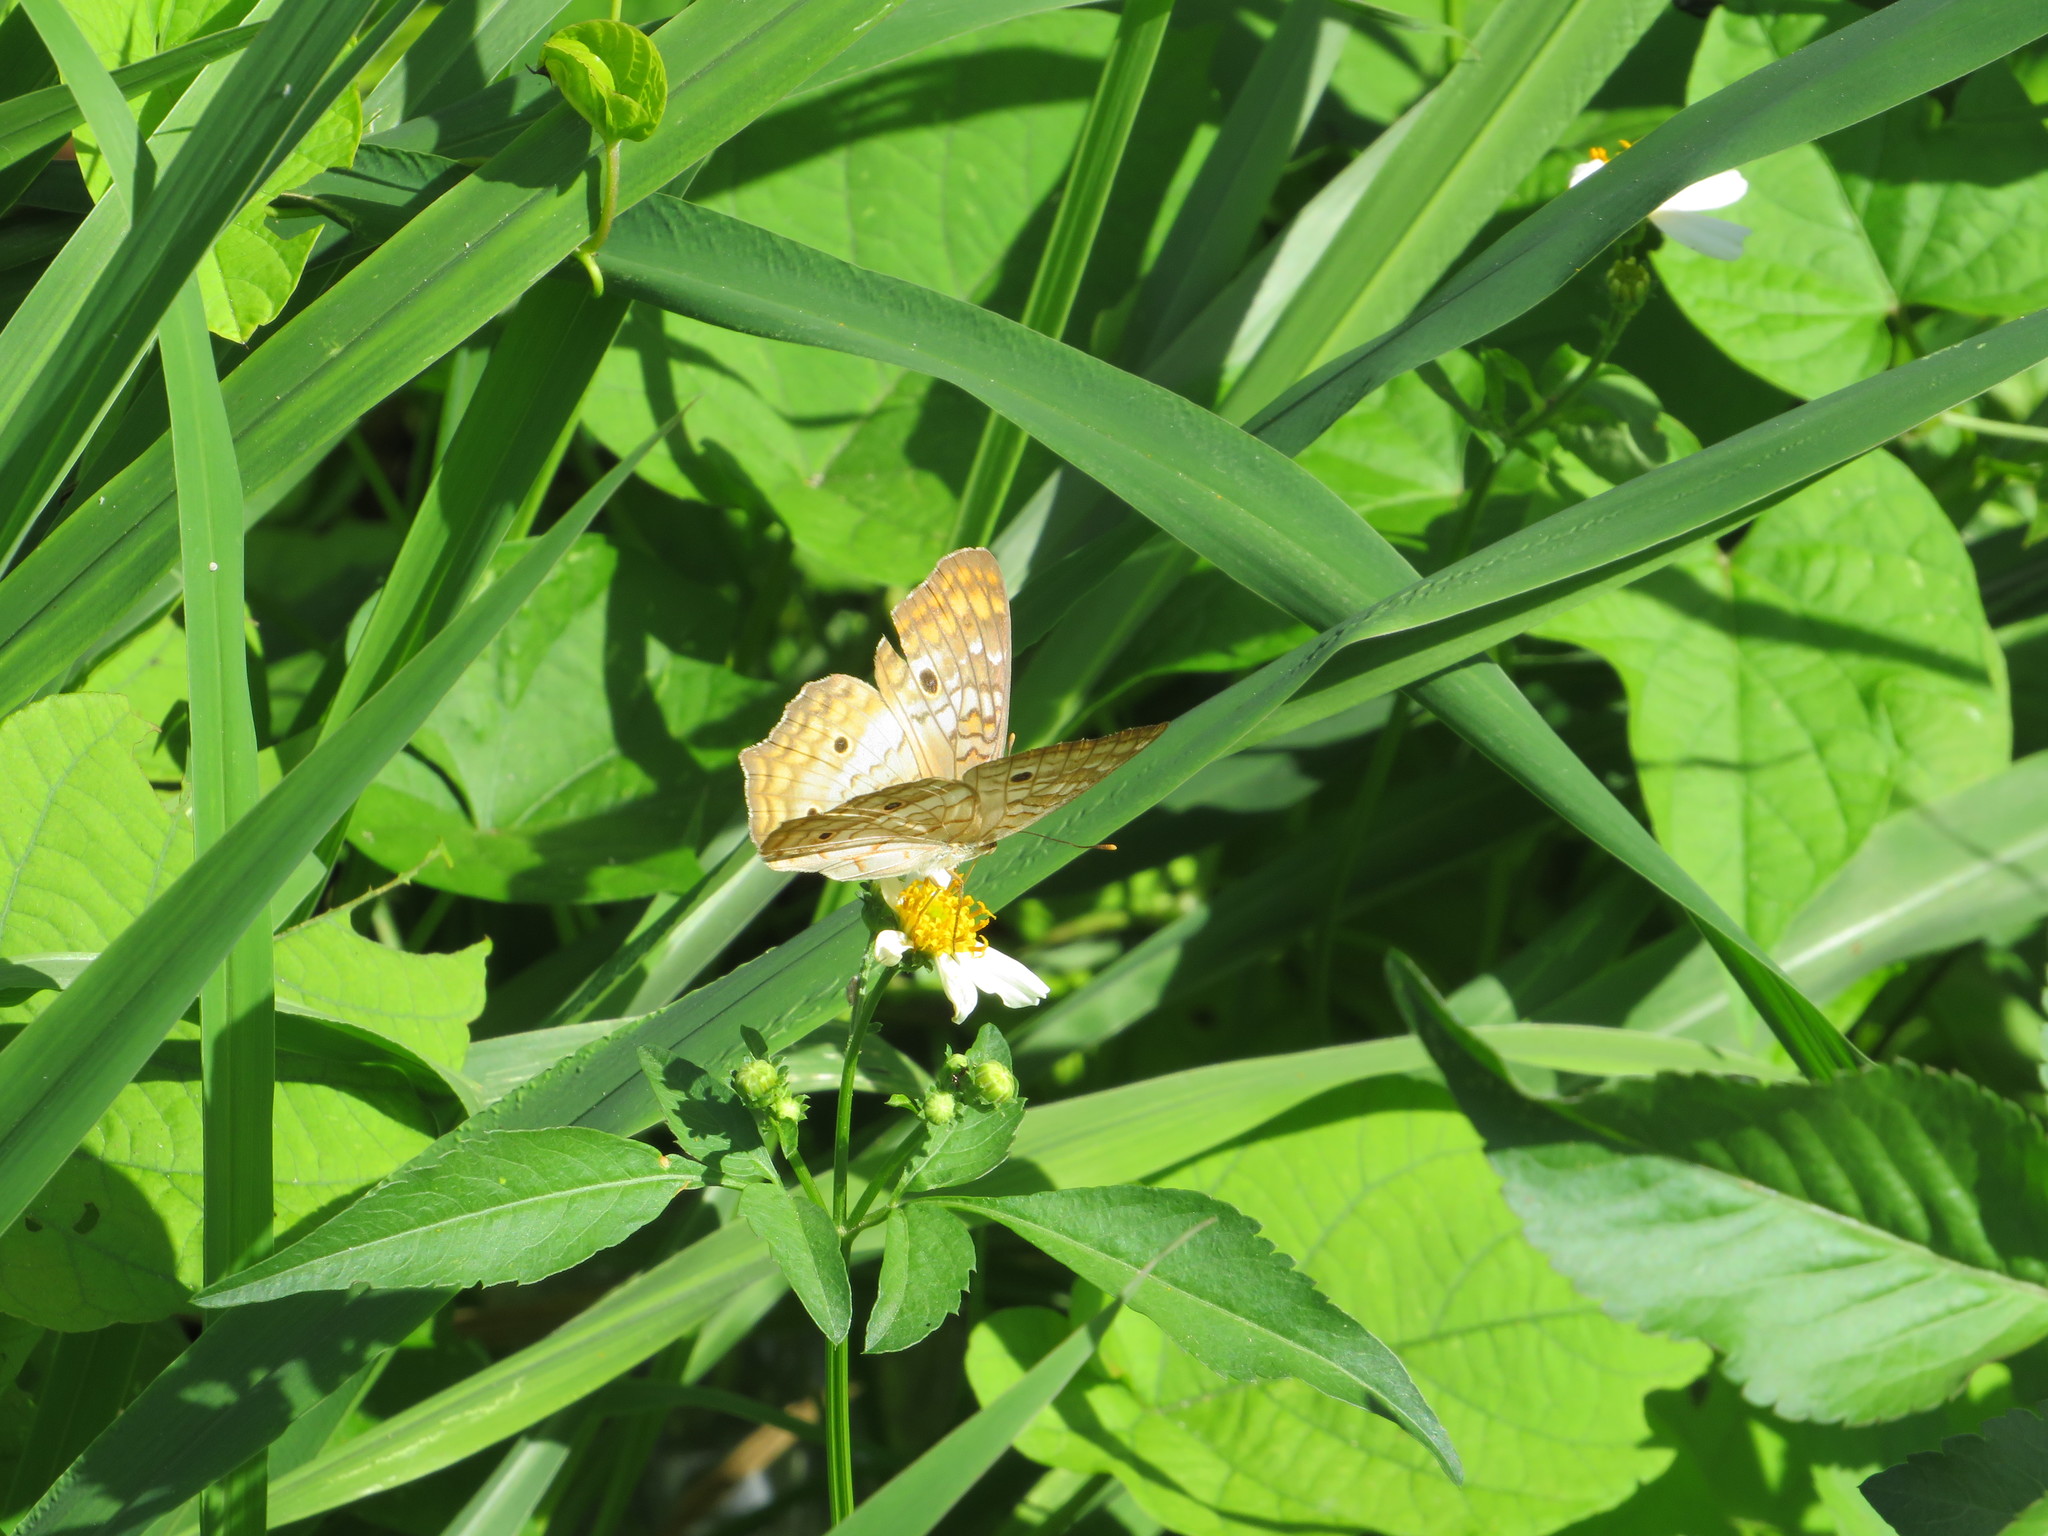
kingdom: Animalia
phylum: Arthropoda
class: Insecta
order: Lepidoptera
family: Nymphalidae
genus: Anartia
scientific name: Anartia jatrophae
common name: White peacock
